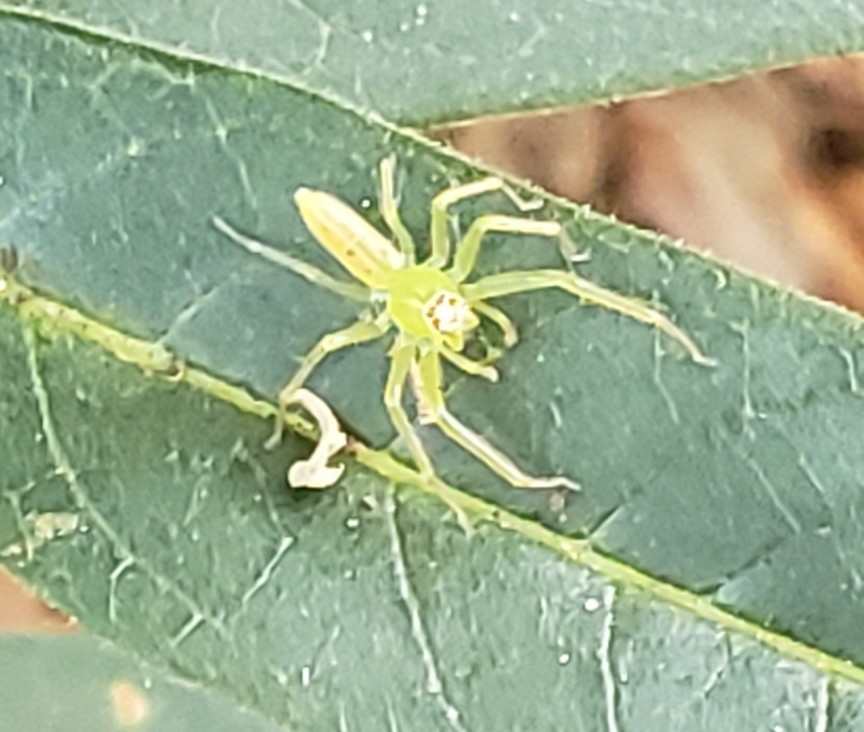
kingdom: Animalia
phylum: Arthropoda
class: Arachnida
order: Araneae
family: Salticidae
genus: Lyssomanes
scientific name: Lyssomanes viridis
